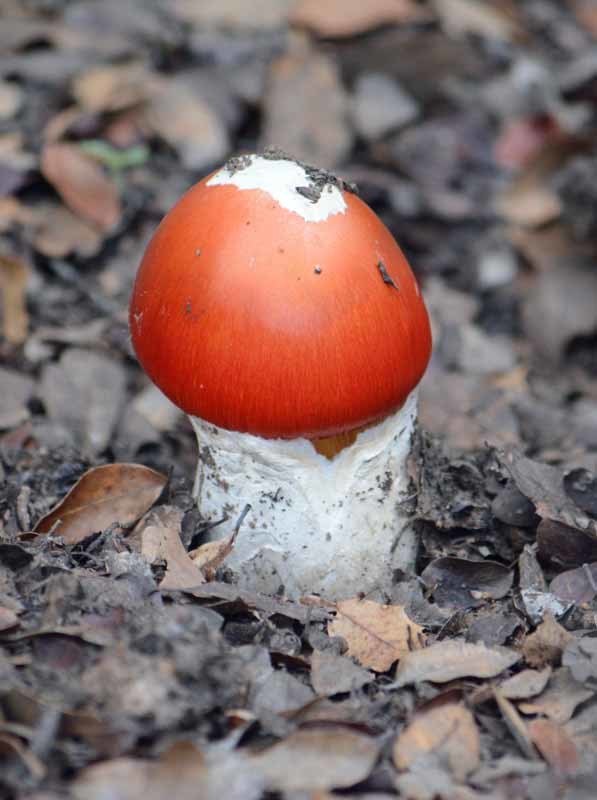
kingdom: Fungi
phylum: Basidiomycota
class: Agaricomycetes
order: Agaricales
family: Amanitaceae
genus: Amanita
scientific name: Amanita jacksonii
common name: Jackson's slender caesar
